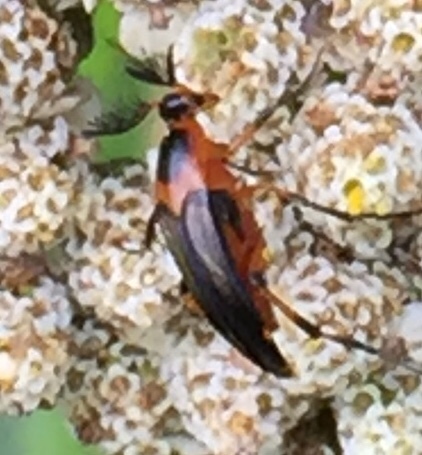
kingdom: Animalia
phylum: Arthropoda
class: Insecta
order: Coleoptera
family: Ripiphoridae
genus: Macrosiagon
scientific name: Macrosiagon limbatum
